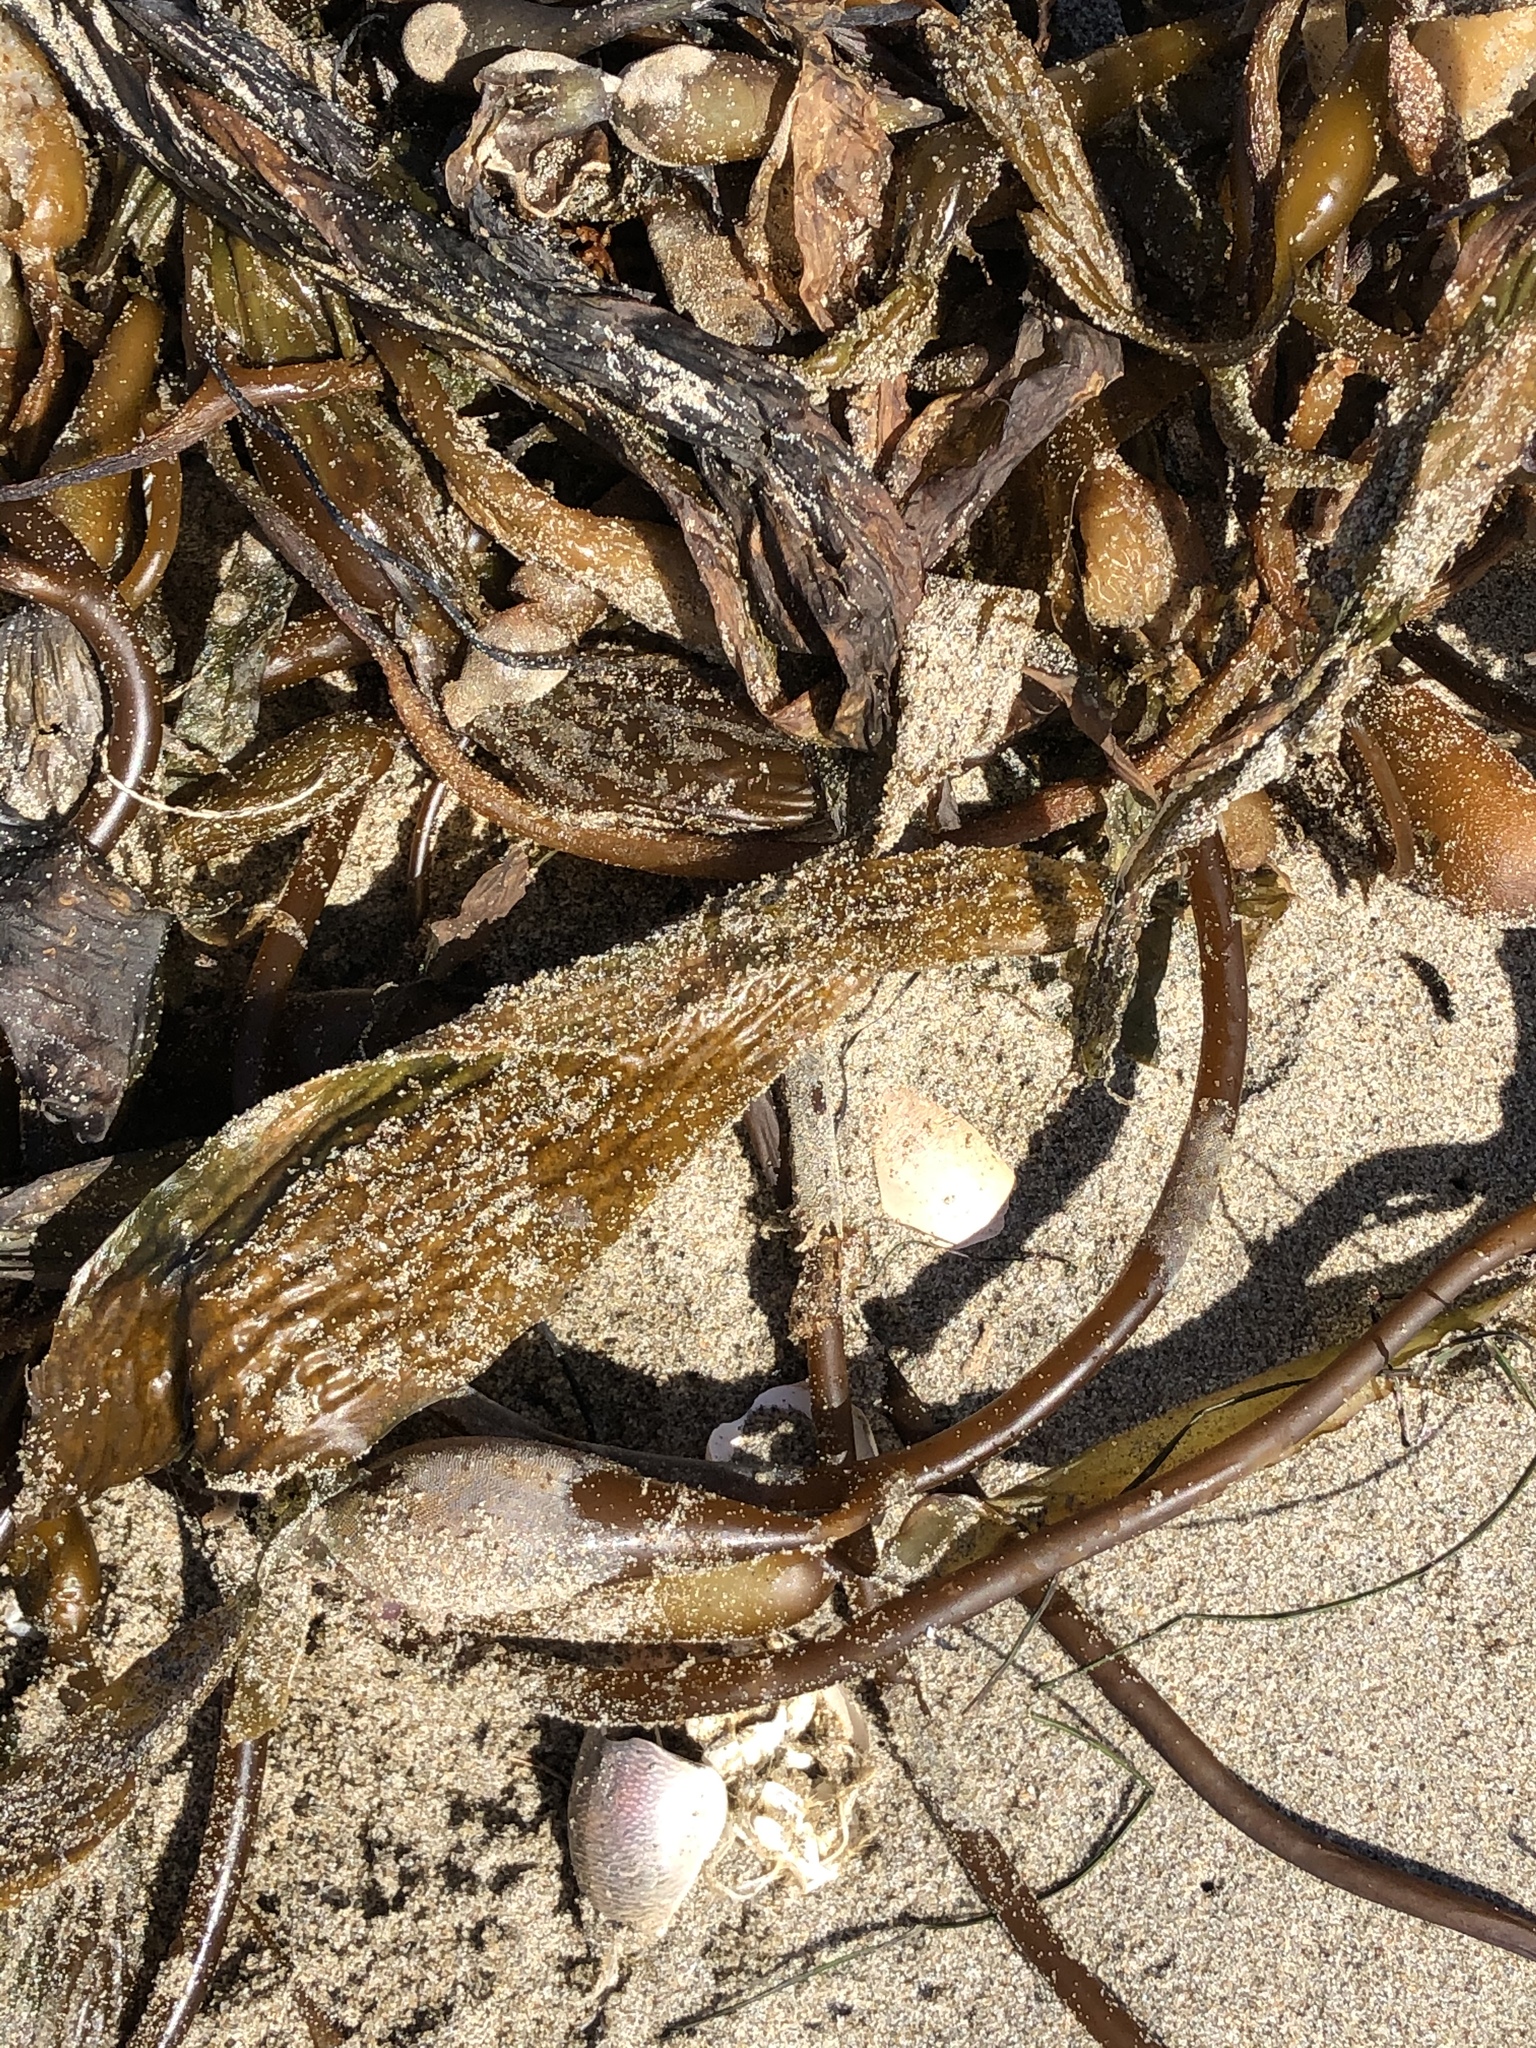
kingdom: Chromista
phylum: Ochrophyta
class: Phaeophyceae
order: Laminariales
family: Laminariaceae
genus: Macrocystis
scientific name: Macrocystis pyrifera
